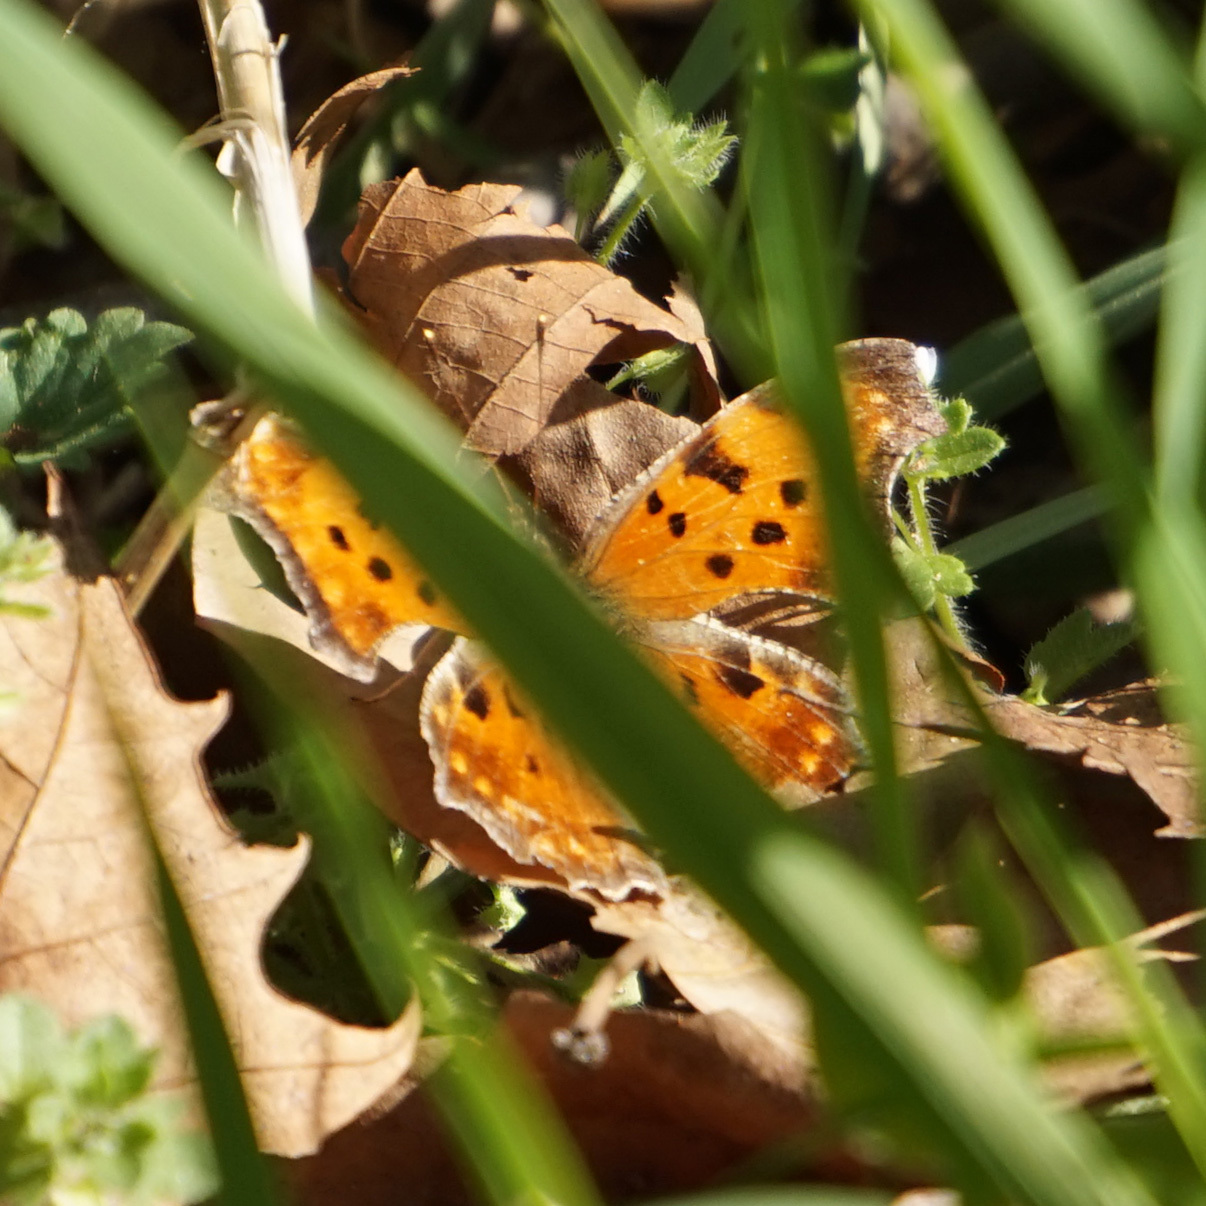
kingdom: Animalia
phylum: Arthropoda
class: Insecta
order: Lepidoptera
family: Nymphalidae
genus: Polygonia
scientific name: Polygonia comma
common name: Eastern comma
